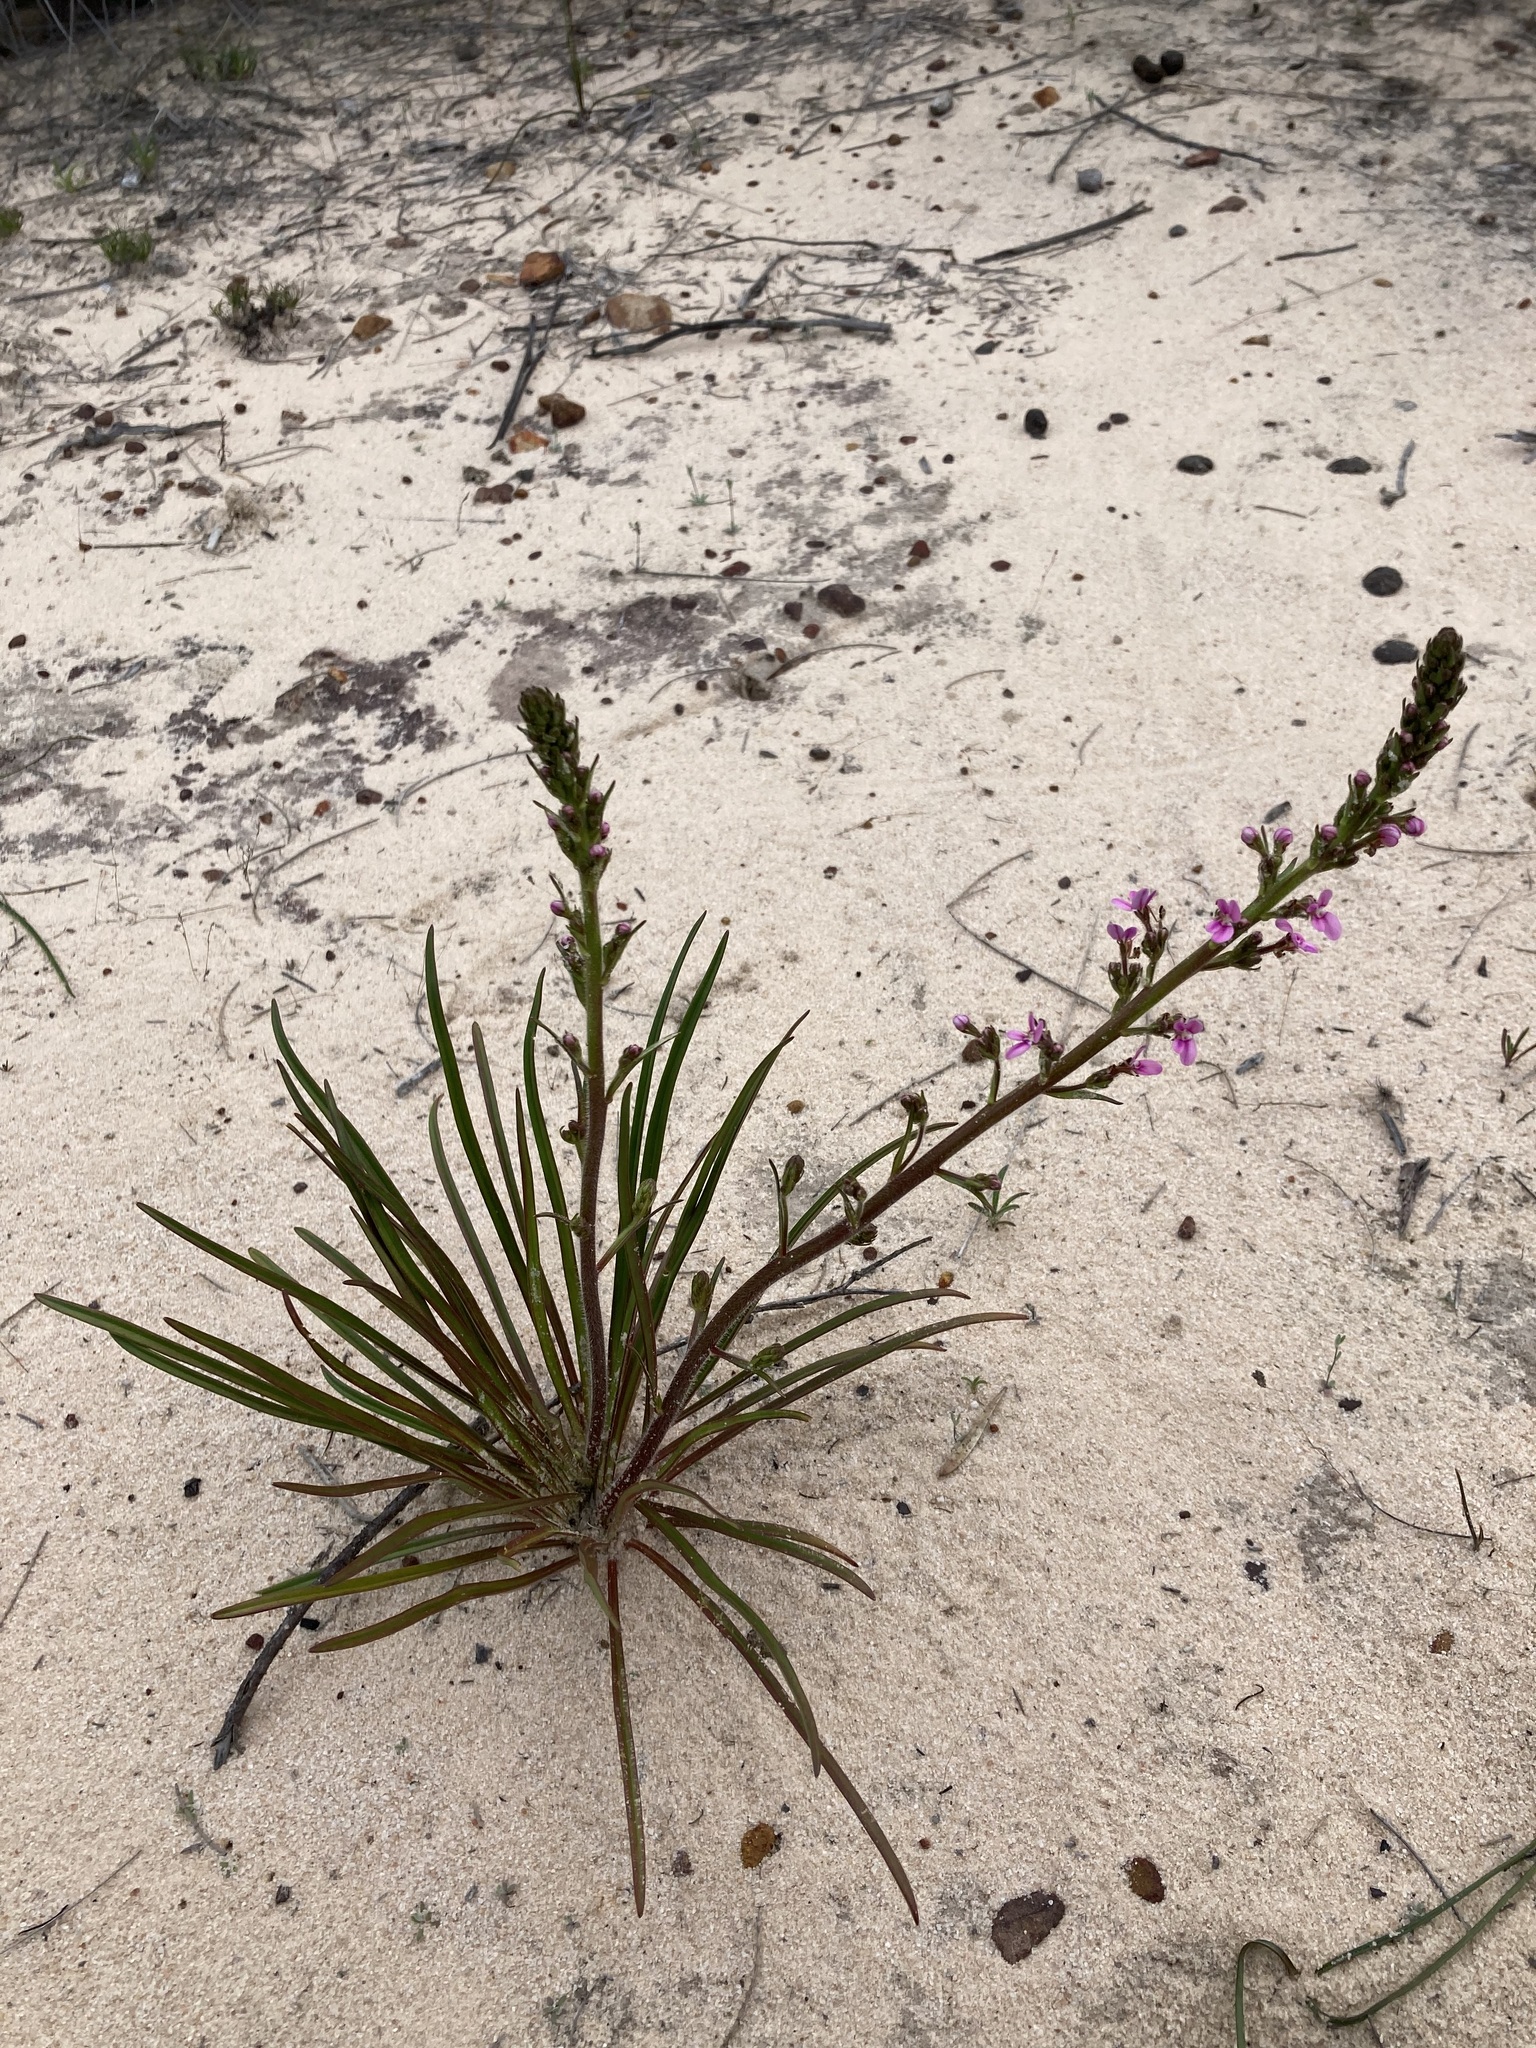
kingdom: Plantae
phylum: Tracheophyta
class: Magnoliopsida
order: Asterales
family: Stylidiaceae
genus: Stylidium
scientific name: Stylidium elongatum
